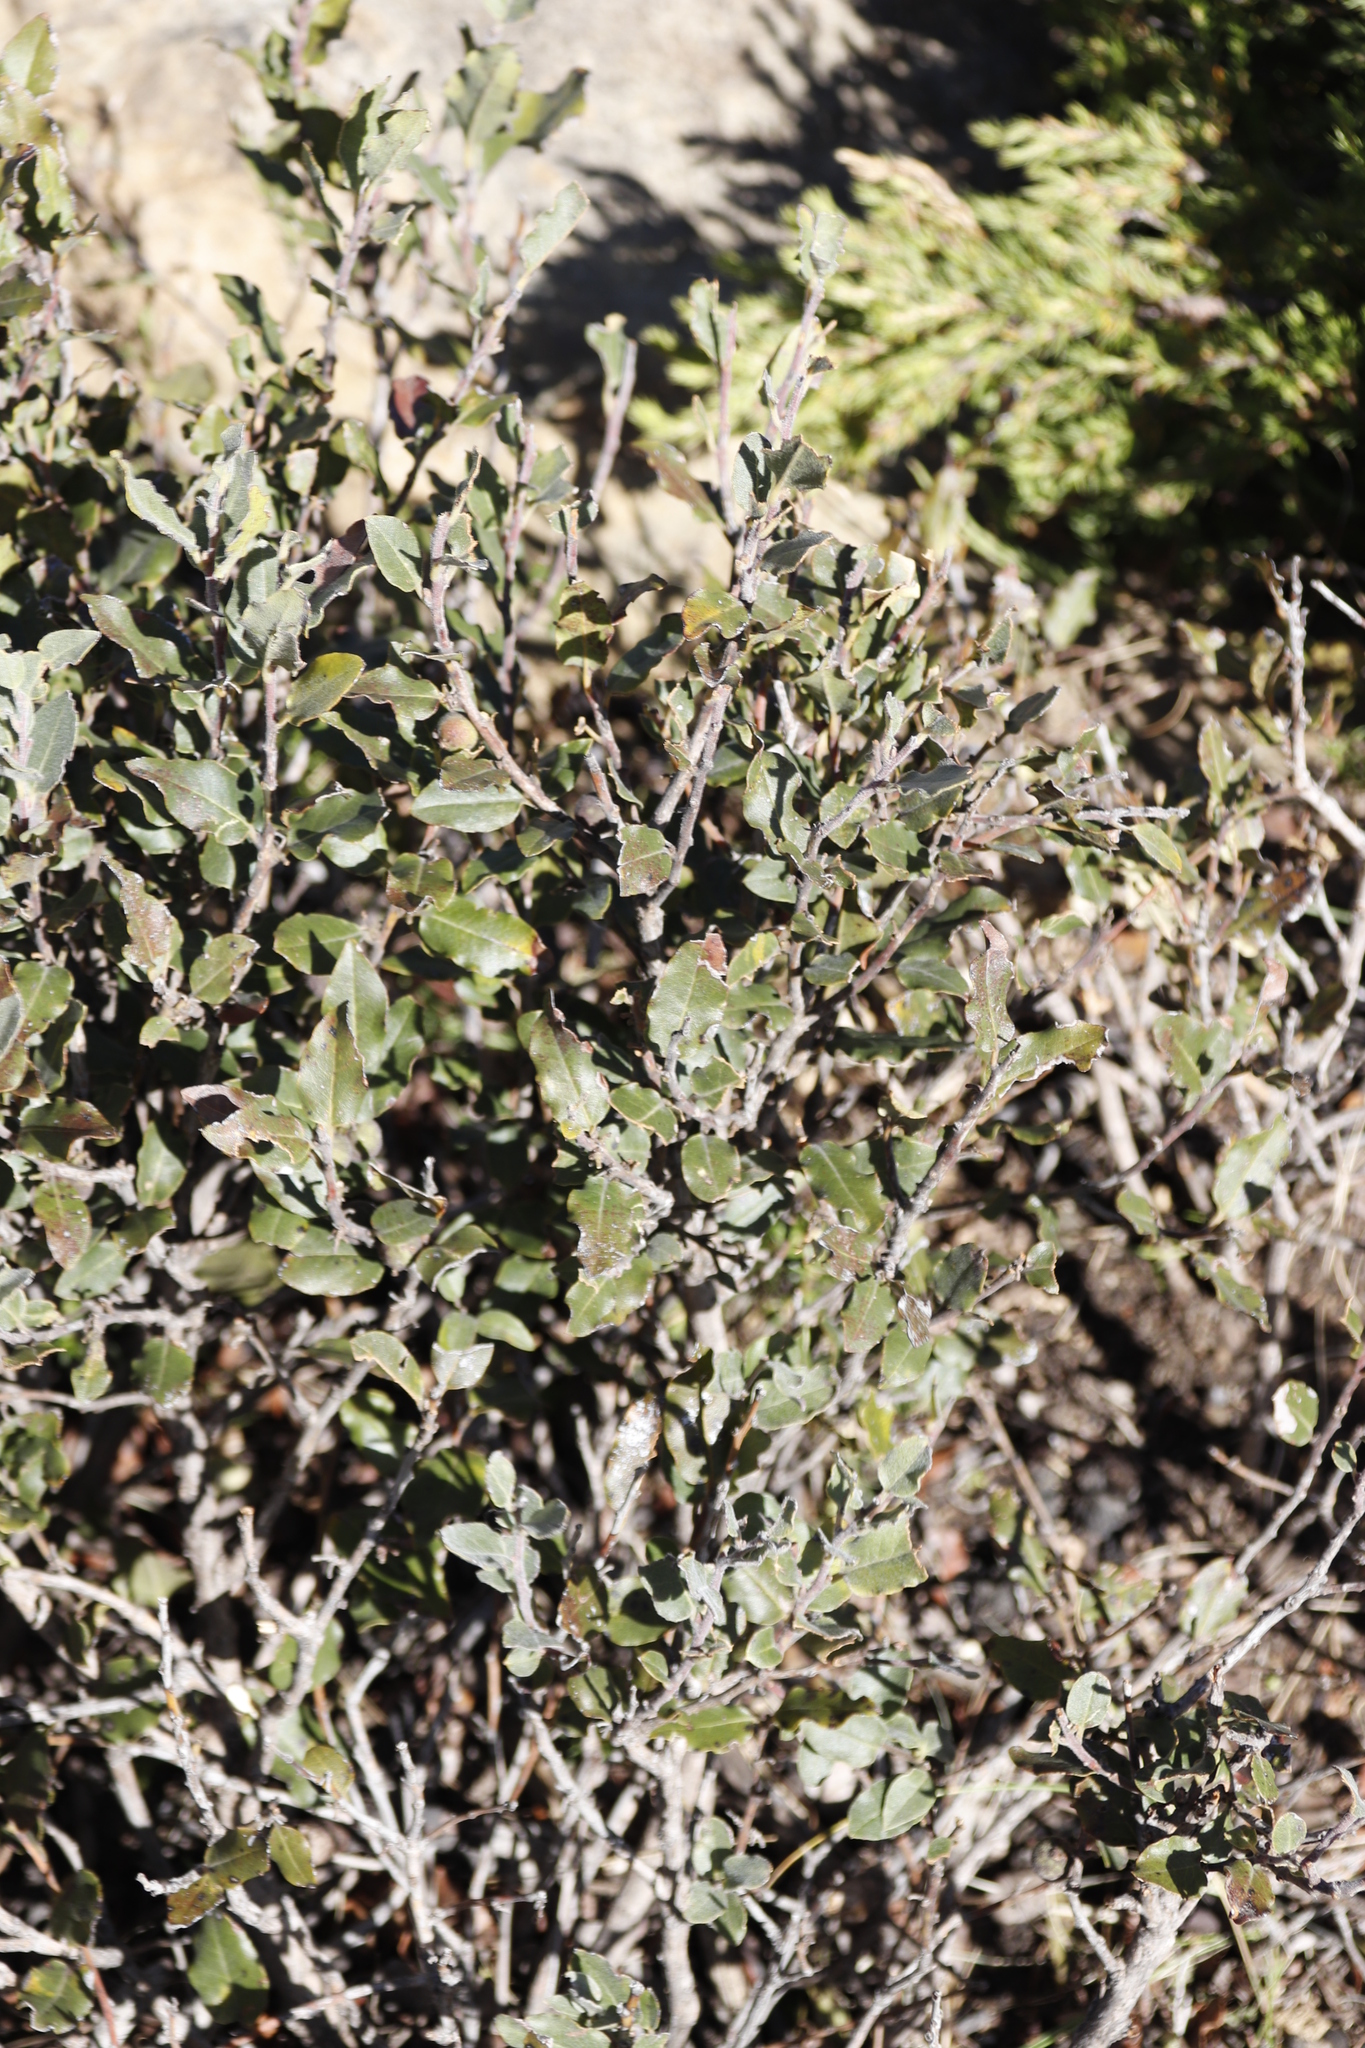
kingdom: Plantae
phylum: Tracheophyta
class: Magnoliopsida
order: Ericales
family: Ebenaceae
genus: Euclea
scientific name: Euclea coriacea
